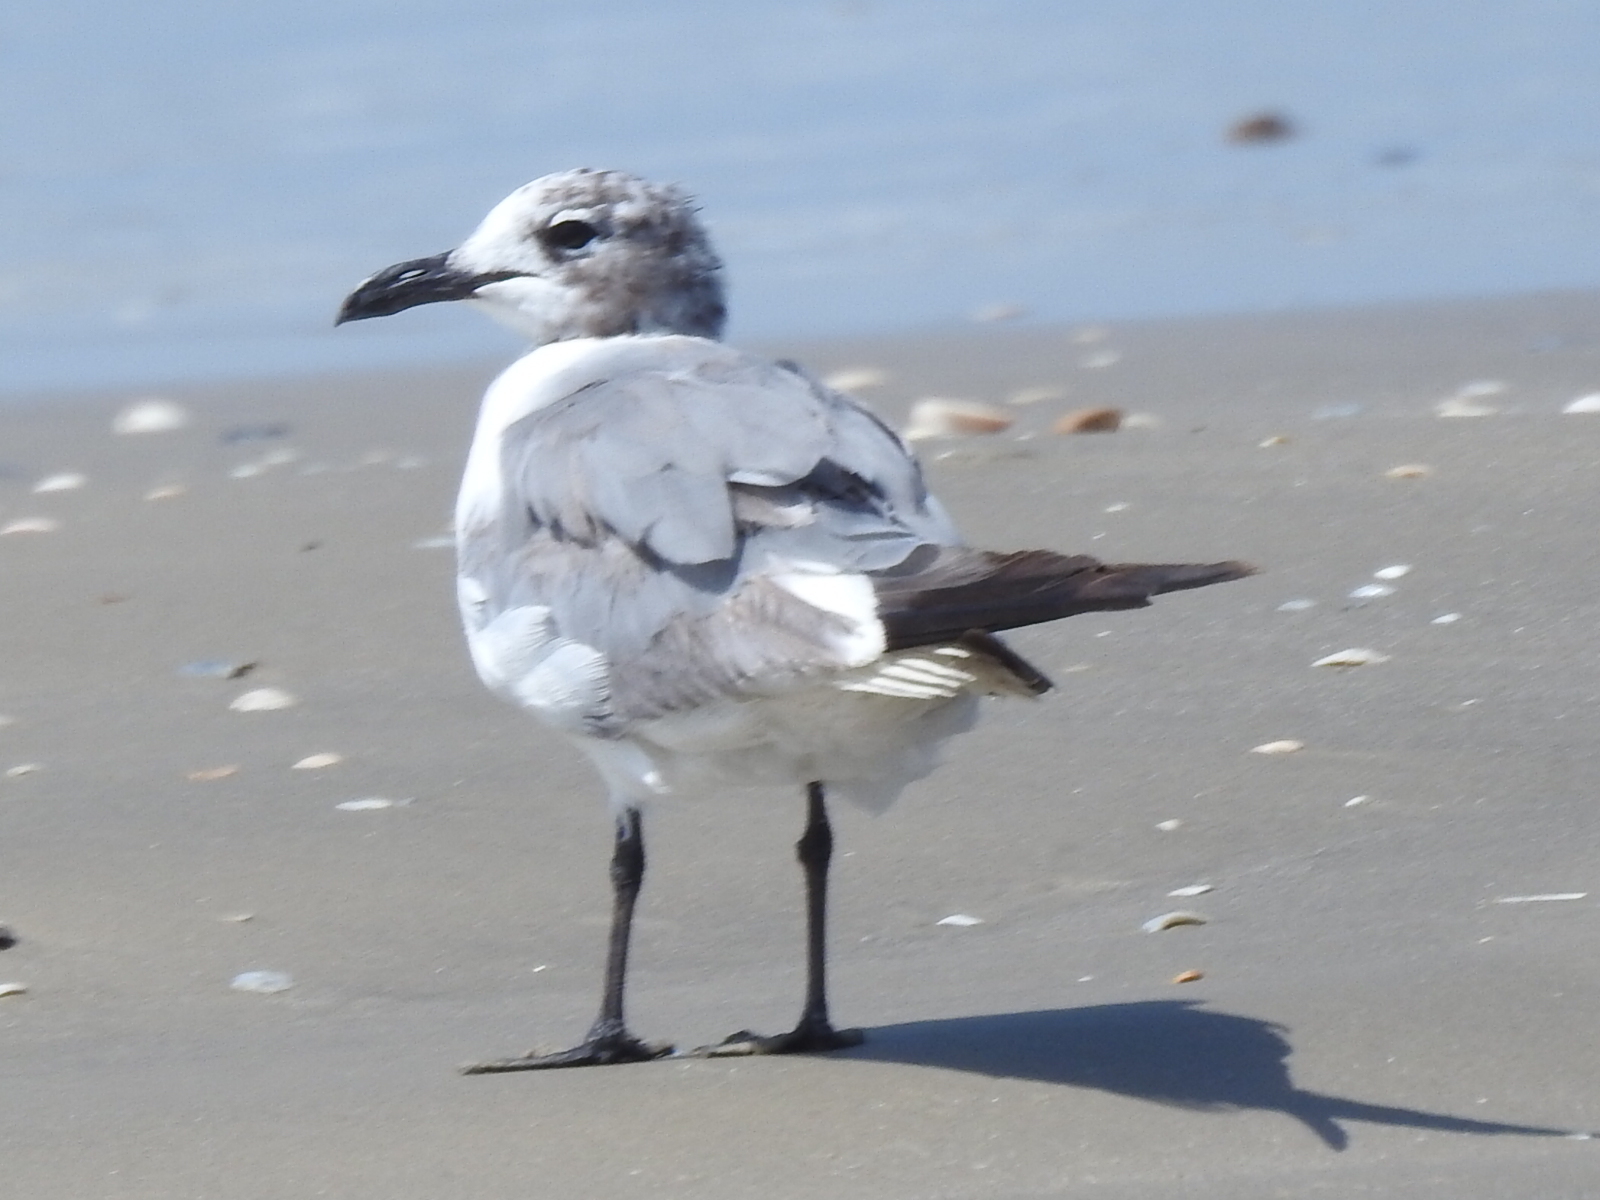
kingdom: Animalia
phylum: Chordata
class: Aves
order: Charadriiformes
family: Laridae
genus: Leucophaeus
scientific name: Leucophaeus atricilla
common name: Laughing gull
